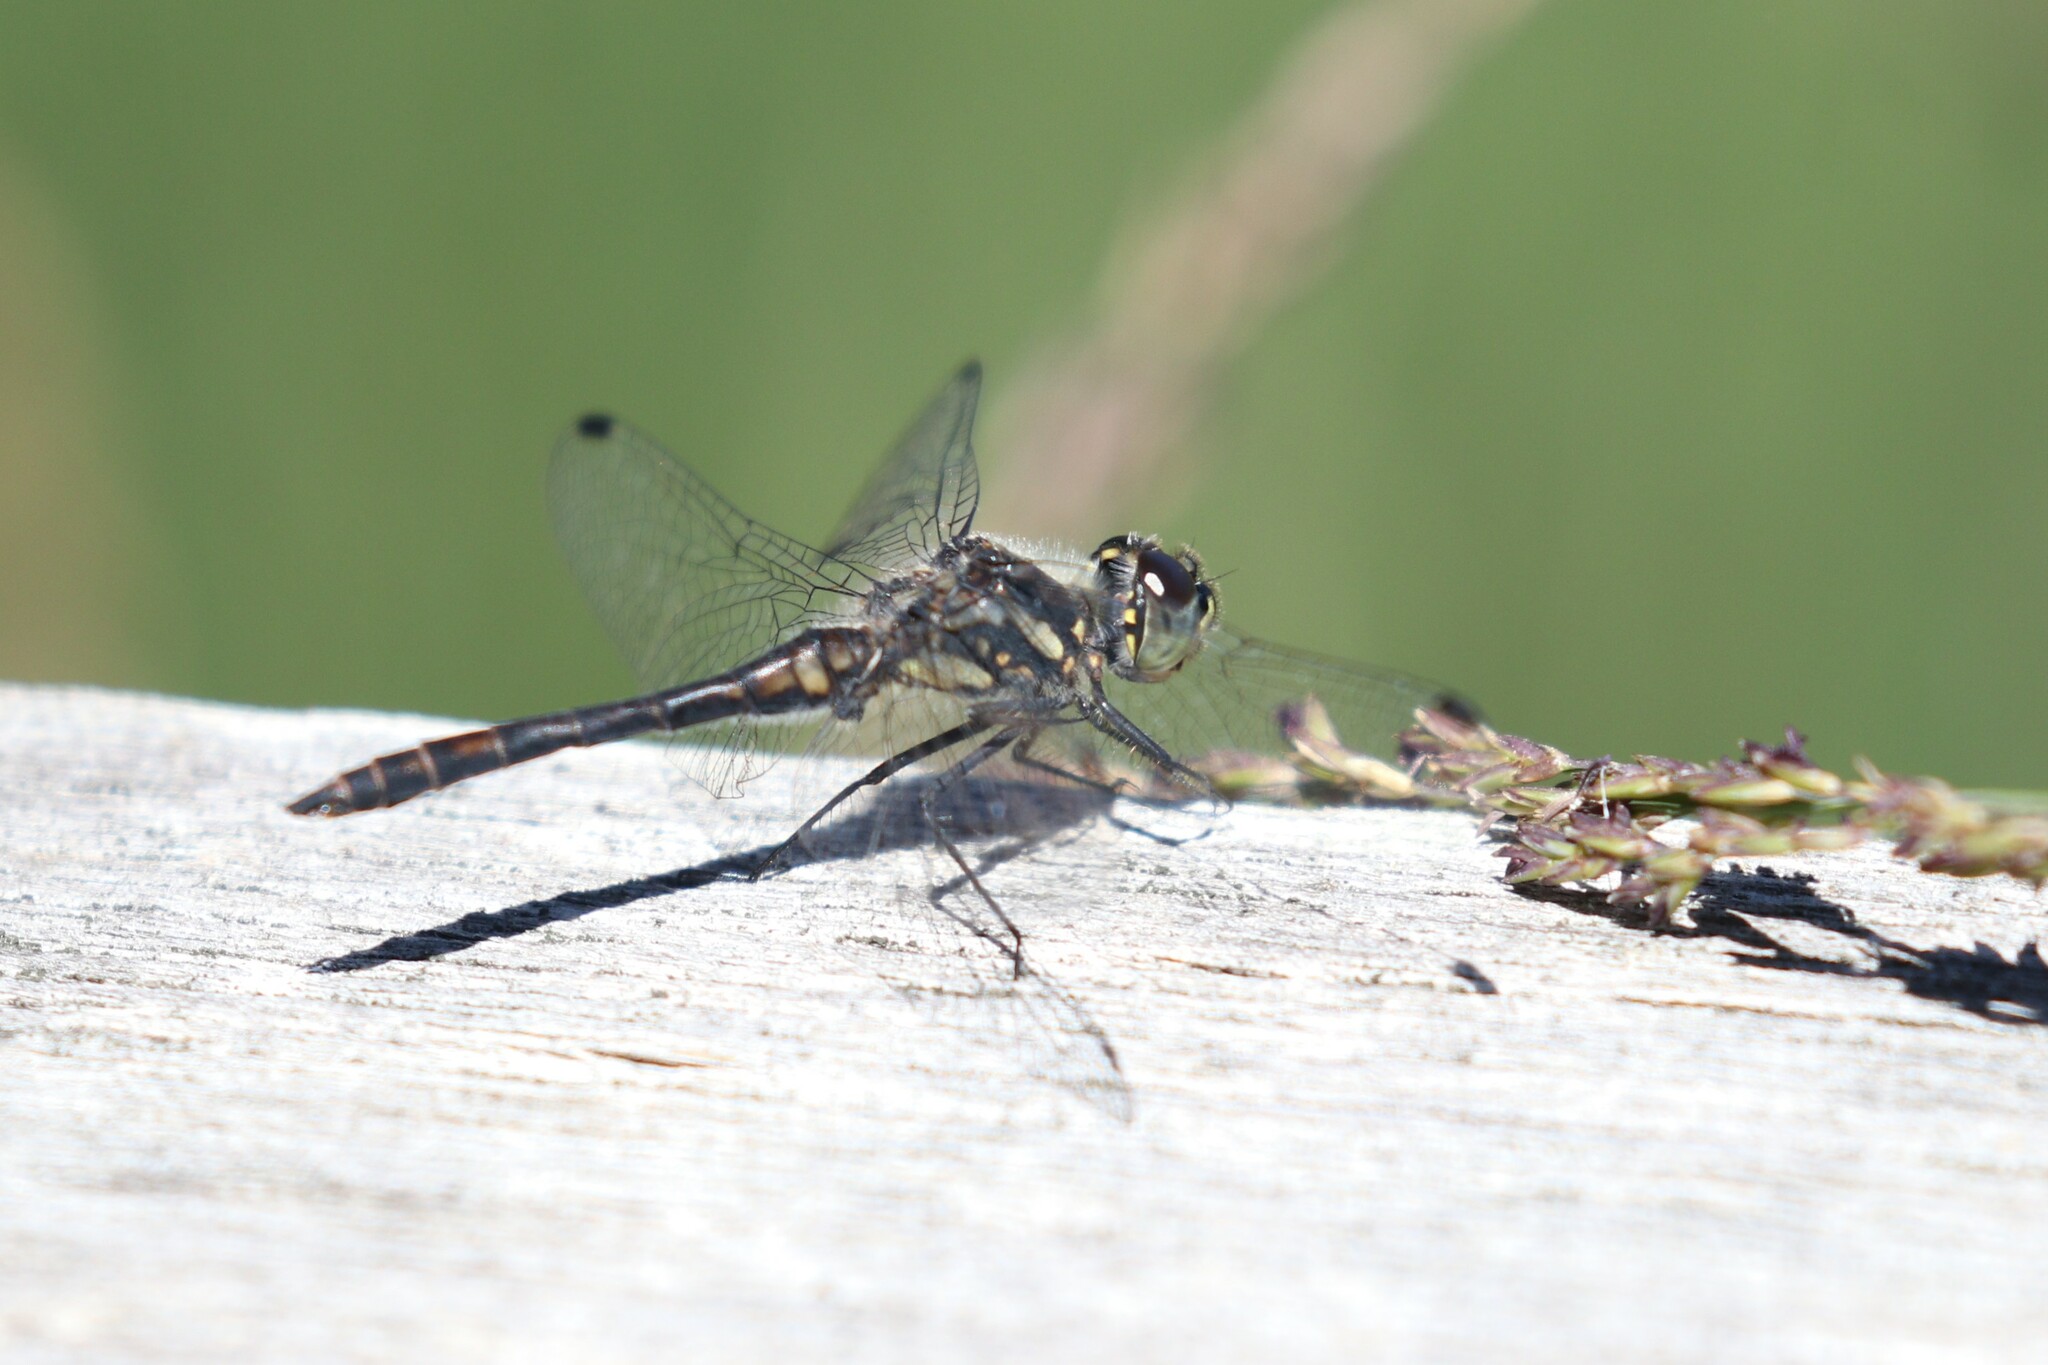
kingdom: Animalia
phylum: Arthropoda
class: Insecta
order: Odonata
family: Libellulidae
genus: Sympetrum
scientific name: Sympetrum danae
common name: Black darter
